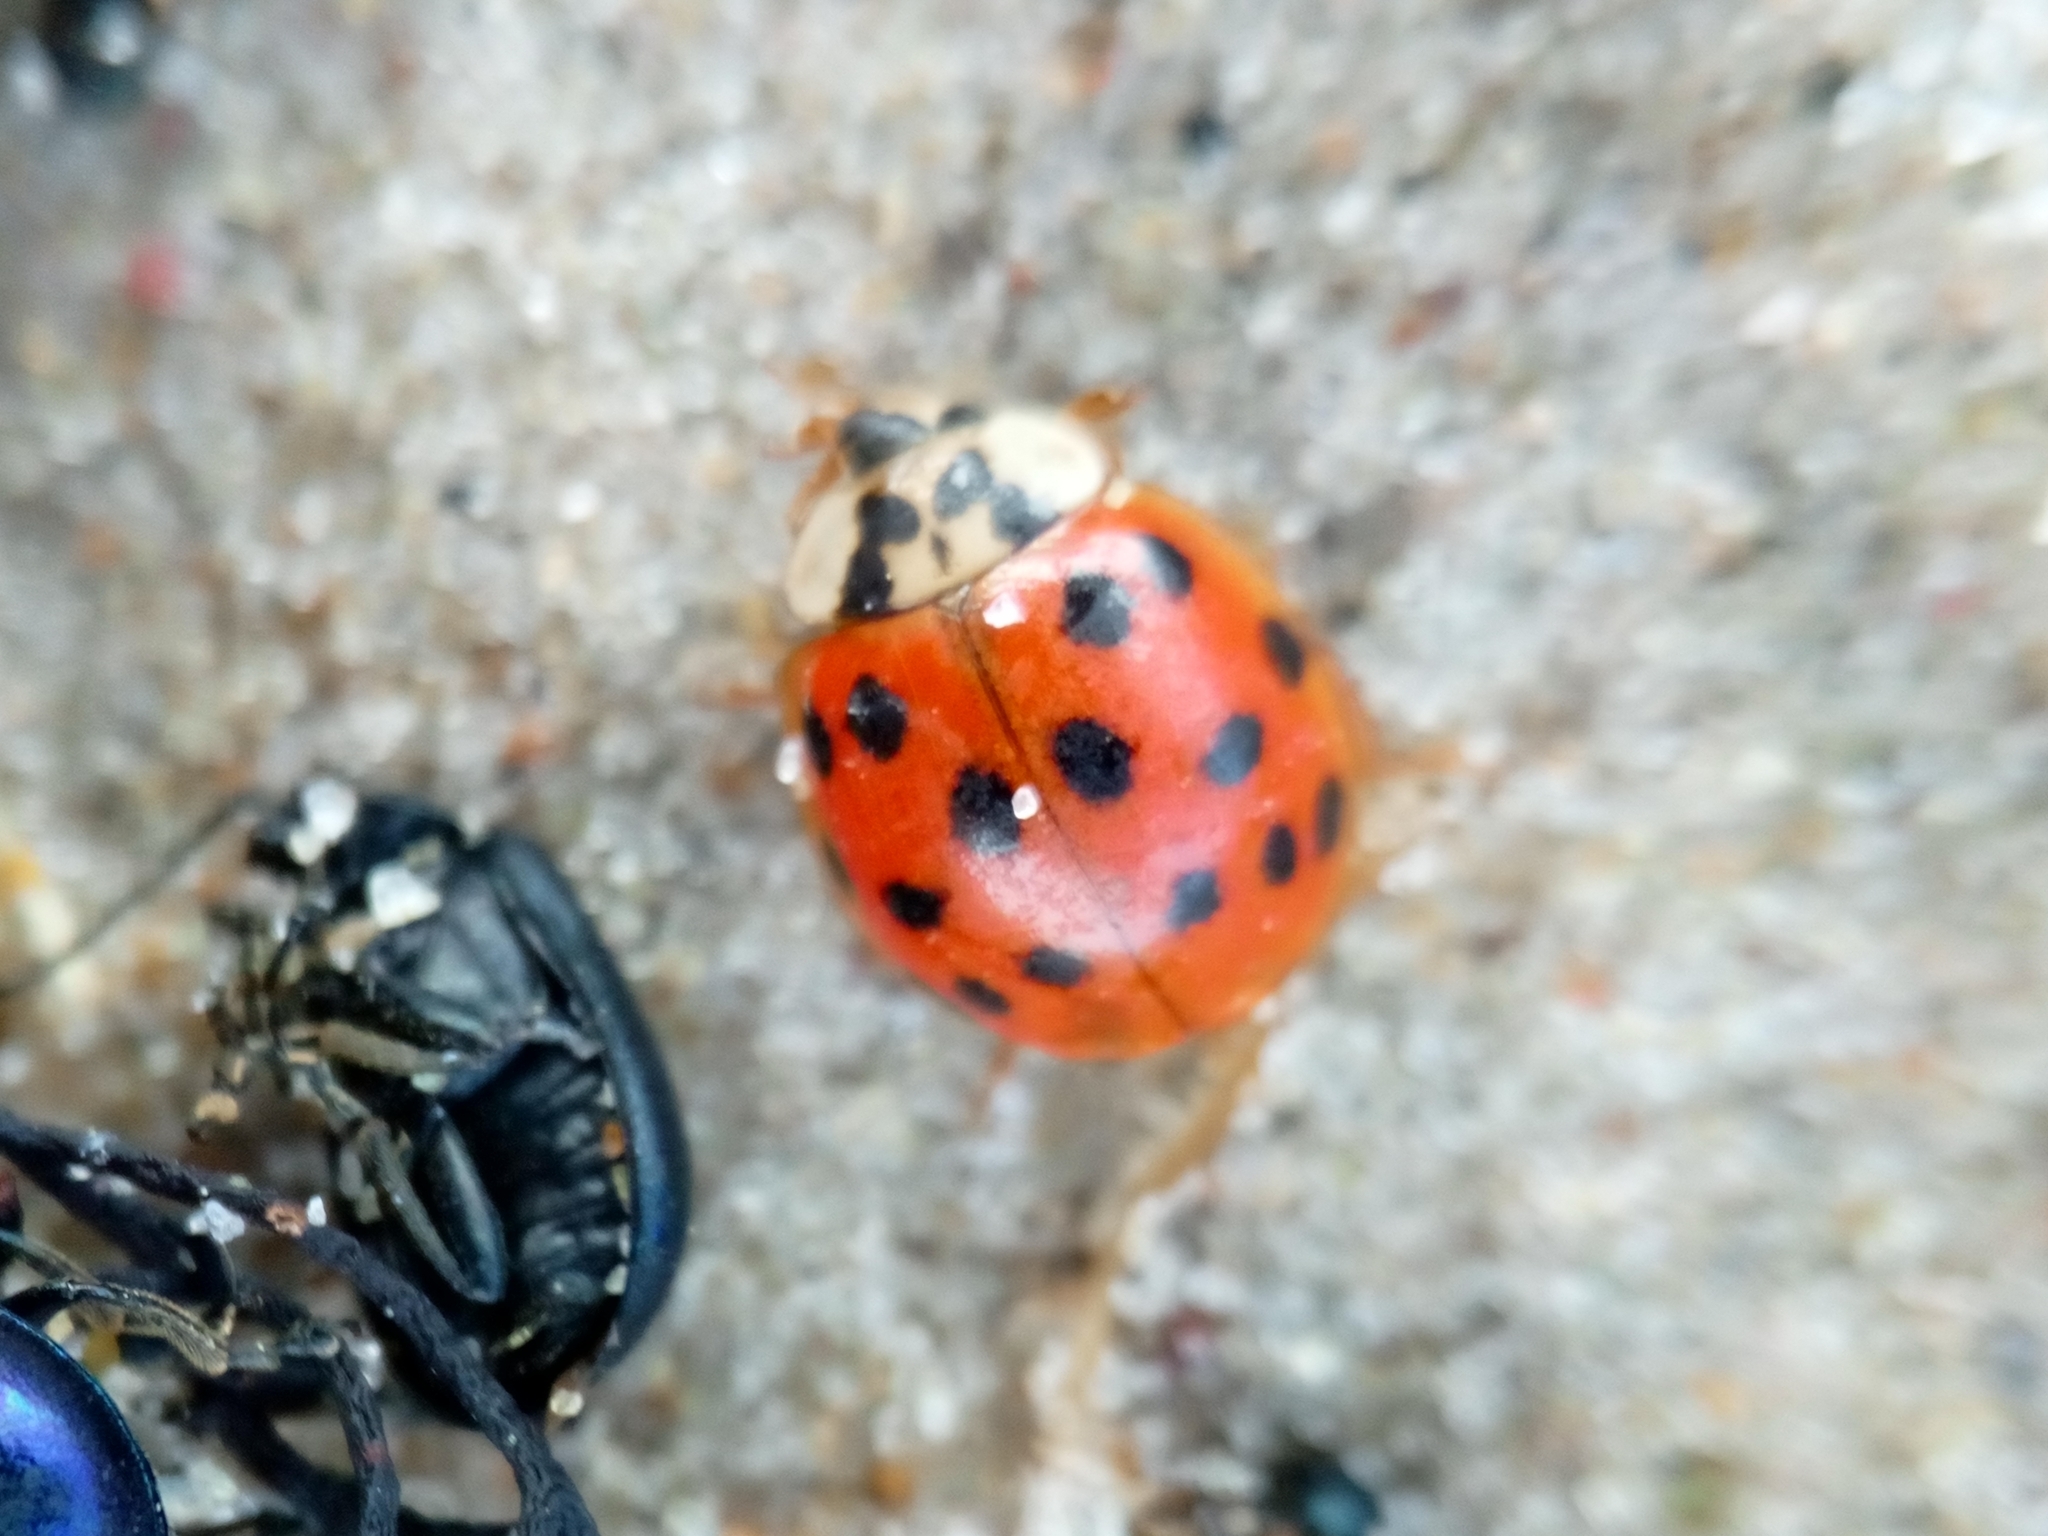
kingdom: Animalia
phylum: Arthropoda
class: Insecta
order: Coleoptera
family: Coccinellidae
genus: Harmonia
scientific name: Harmonia axyridis
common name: Harlequin ladybird
